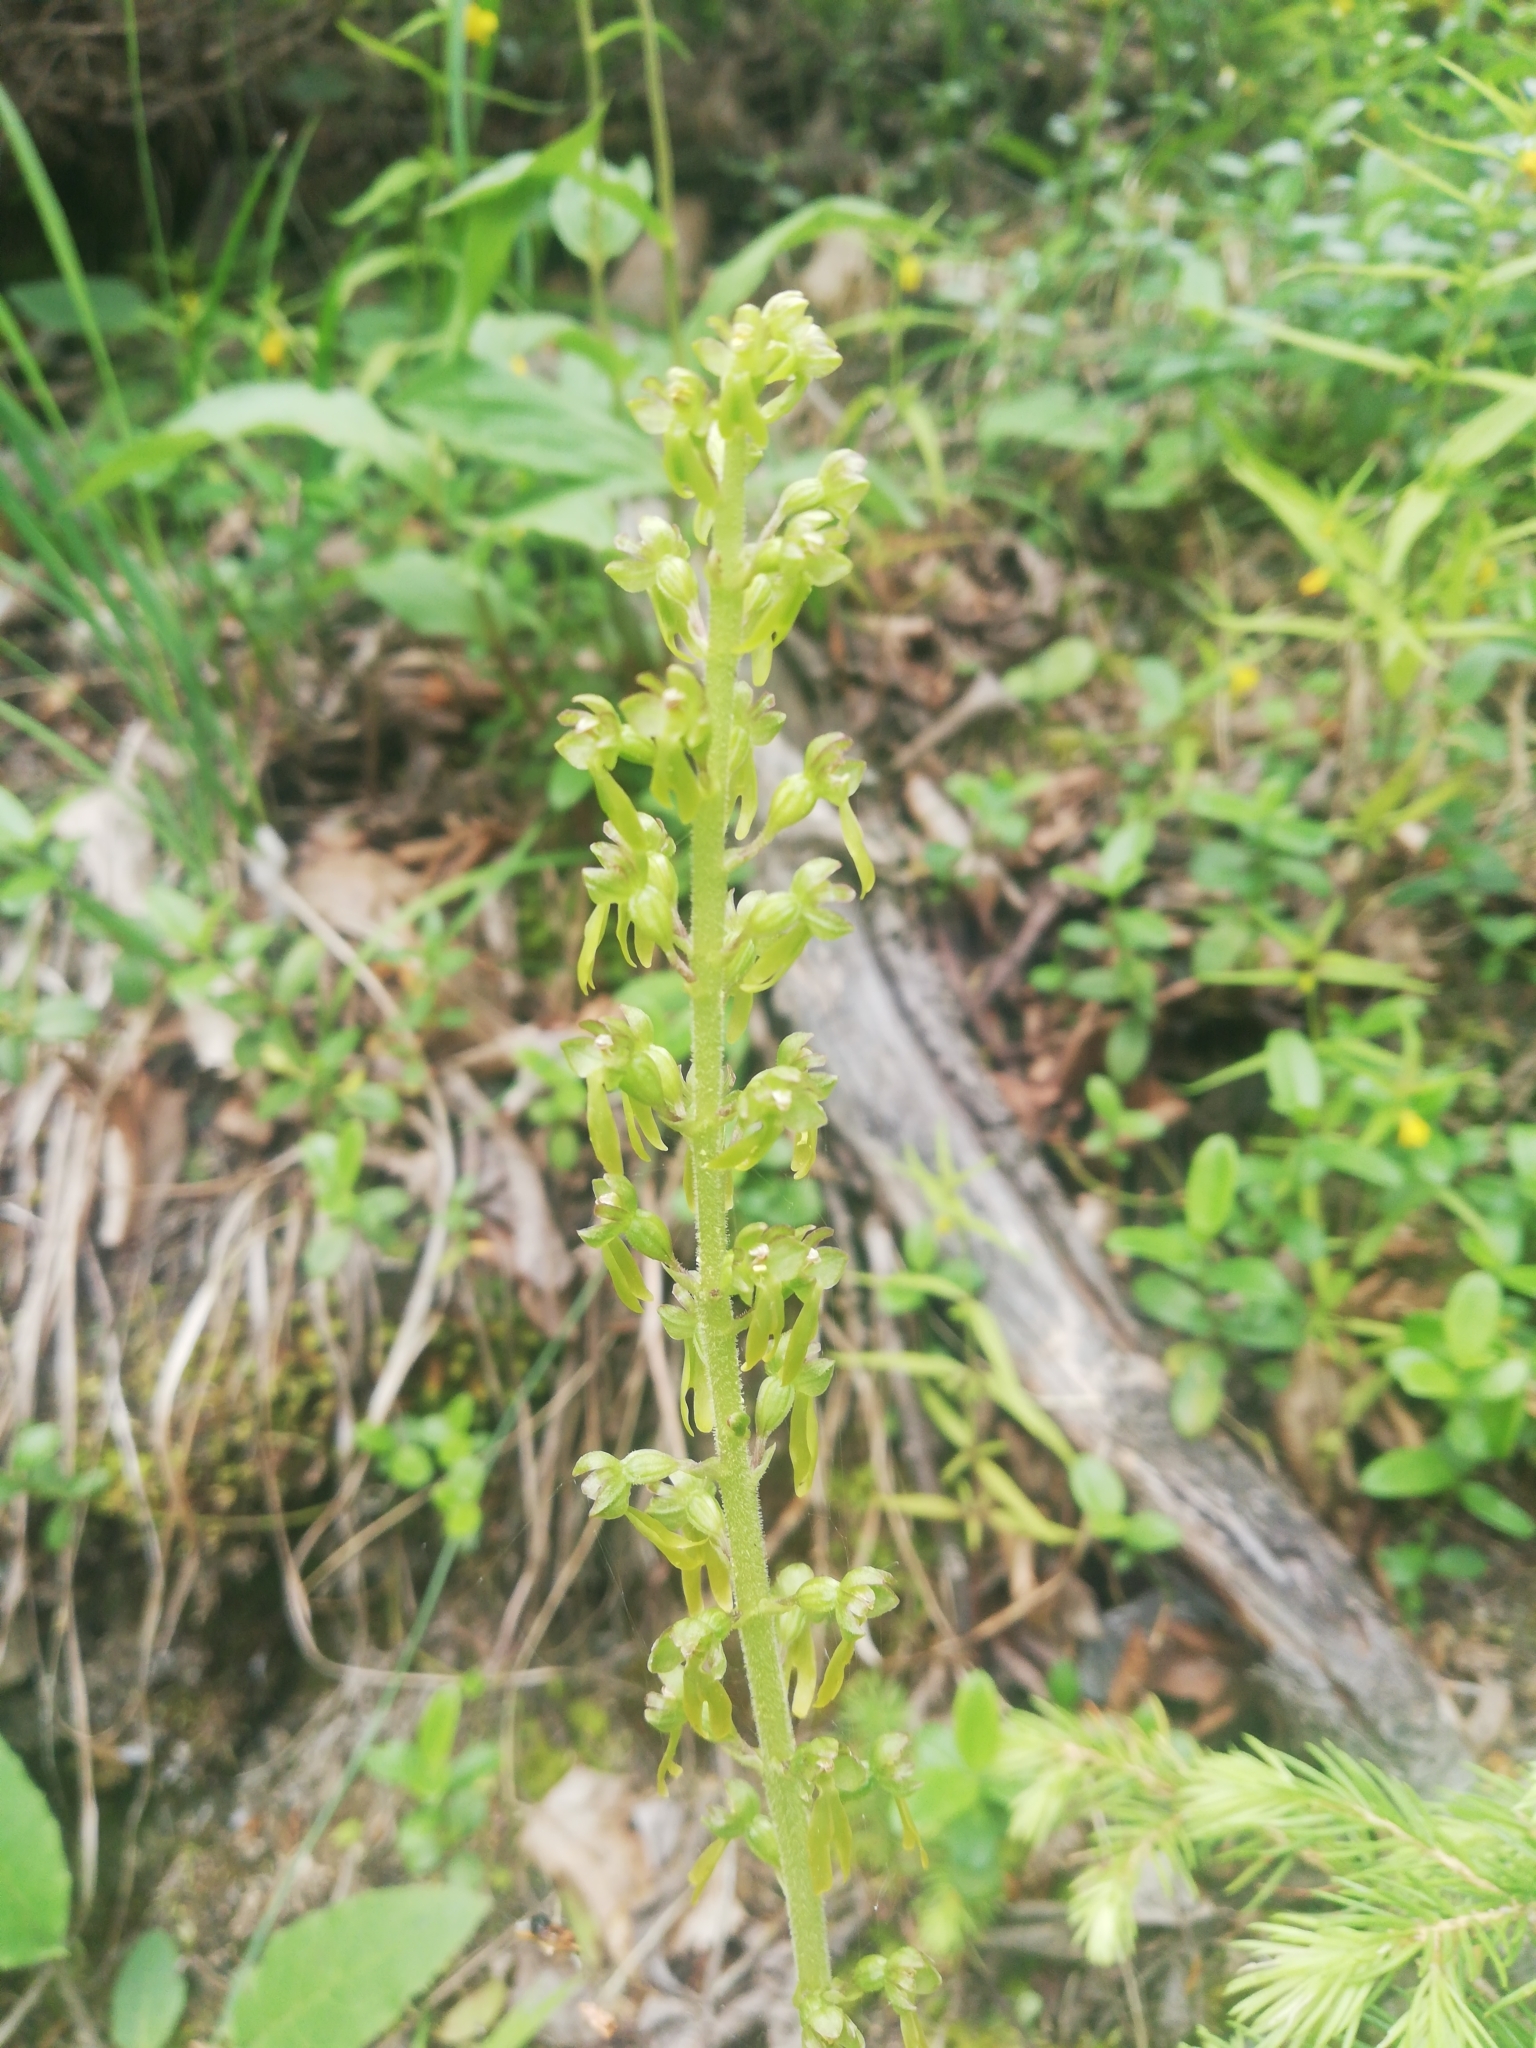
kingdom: Plantae
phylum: Tracheophyta
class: Liliopsida
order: Asparagales
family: Orchidaceae
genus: Neottia
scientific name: Neottia ovata
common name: Common twayblade
